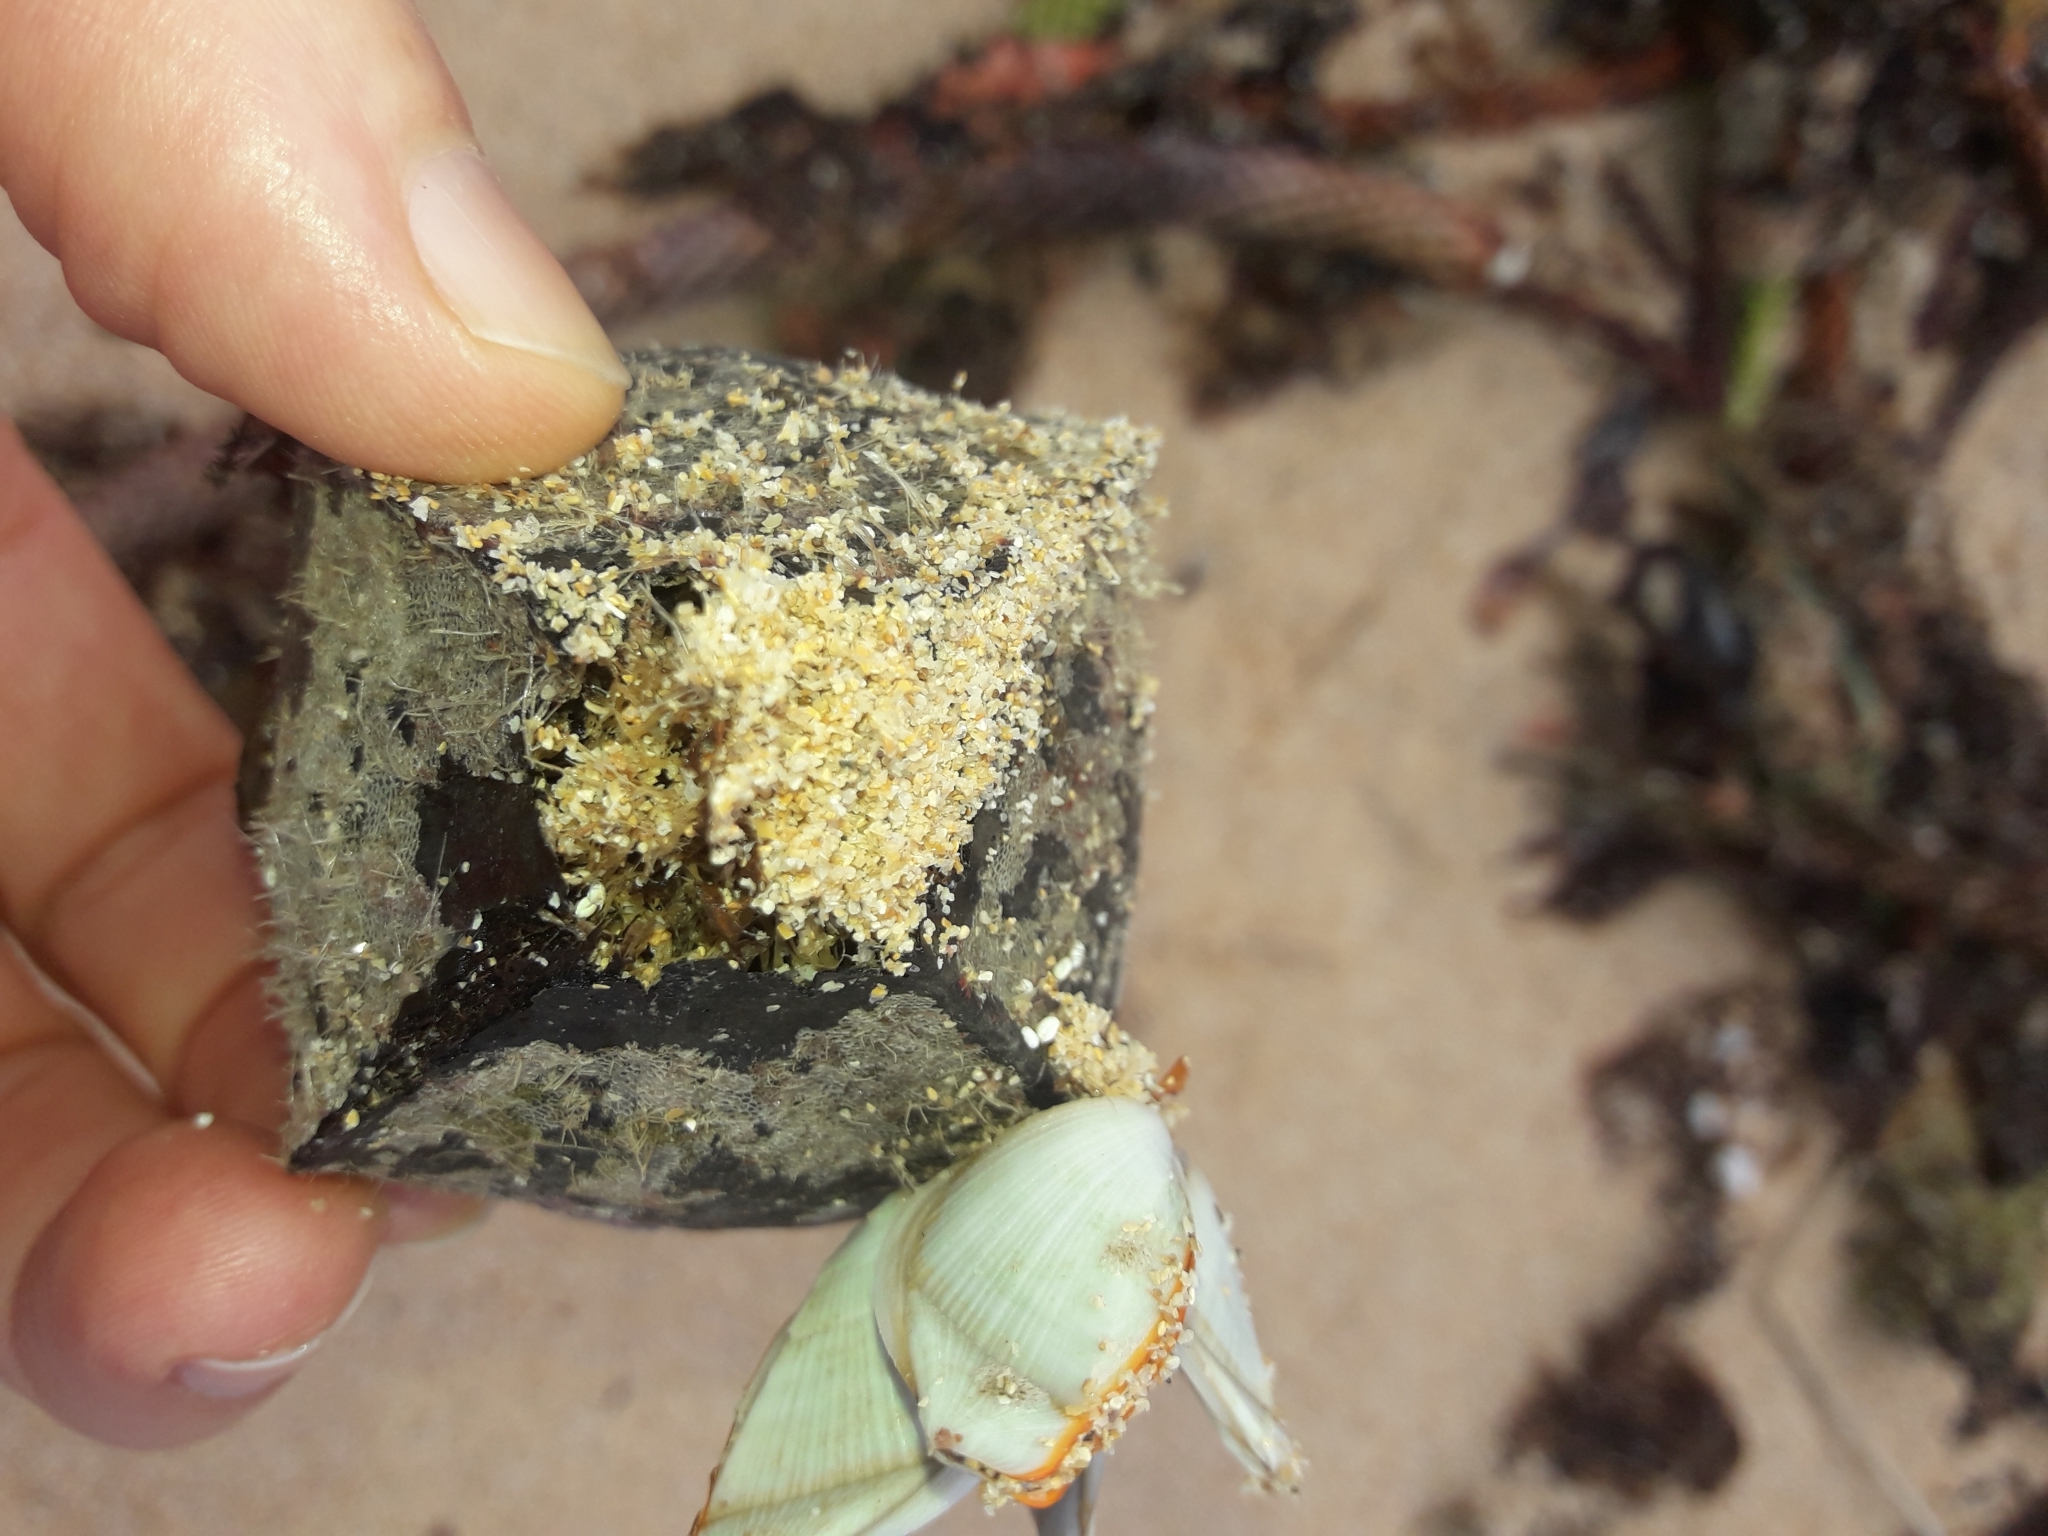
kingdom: Plantae
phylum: Tracheophyta
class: Magnoliopsida
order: Ericales
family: Lecythidaceae
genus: Barringtonia
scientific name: Barringtonia asiatica
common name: Mango-pine
